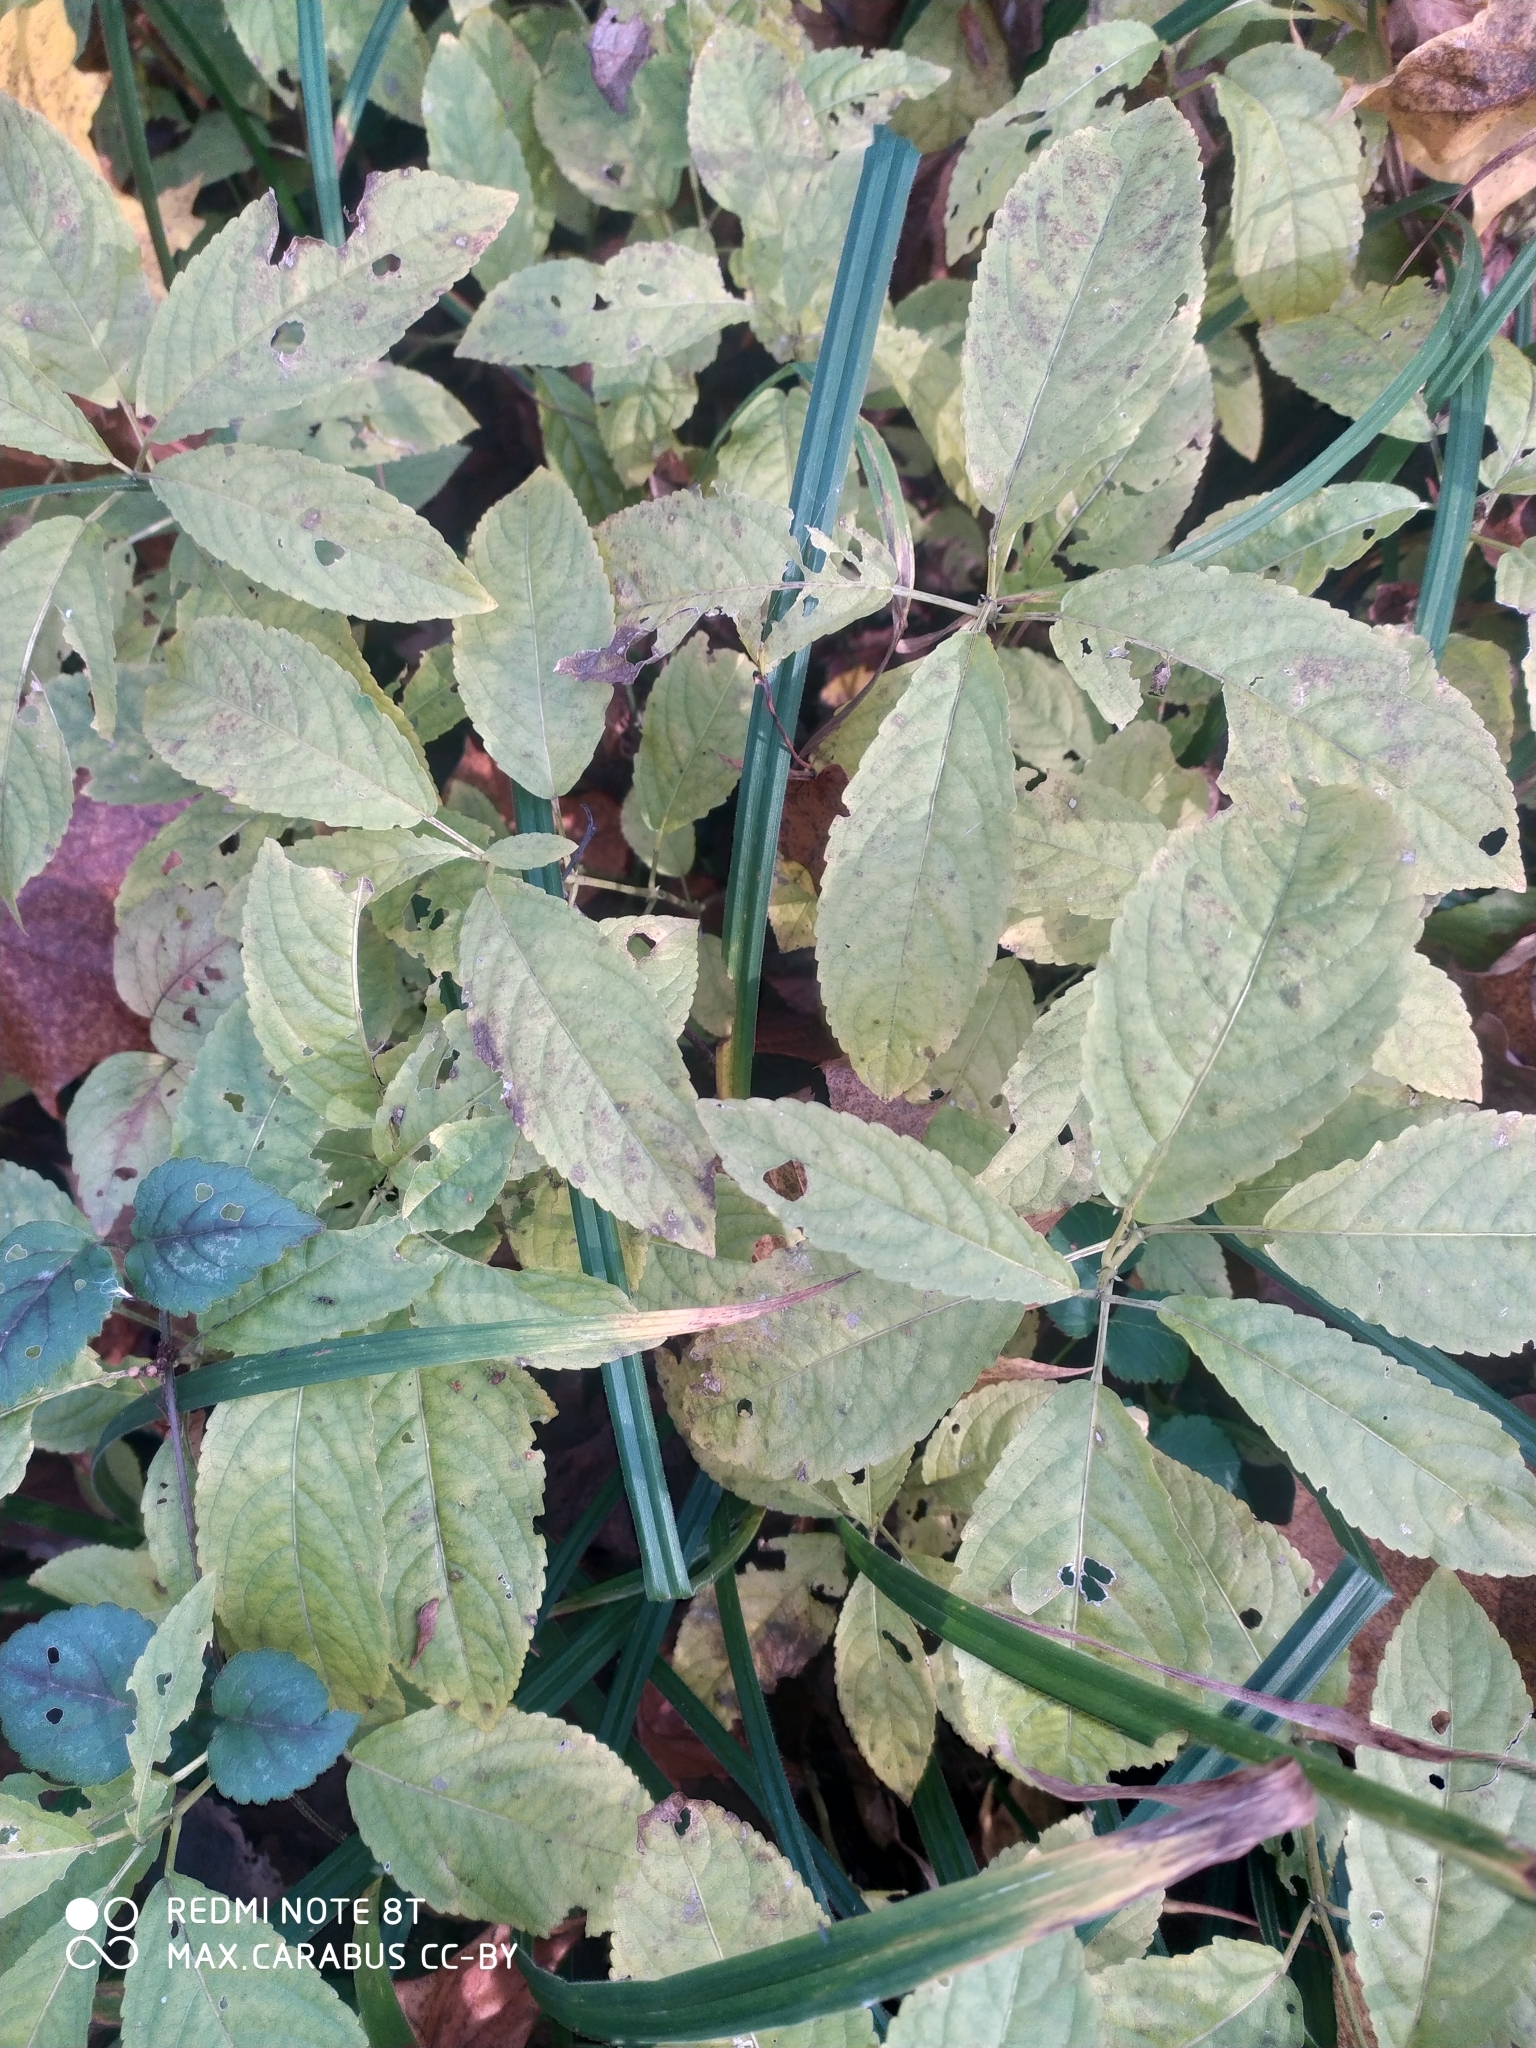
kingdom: Plantae
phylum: Tracheophyta
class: Magnoliopsida
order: Malpighiales
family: Euphorbiaceae
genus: Mercurialis
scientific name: Mercurialis perennis
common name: Dog mercury
